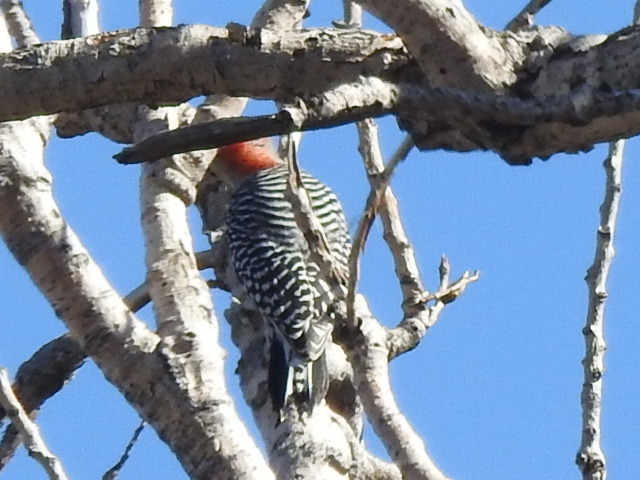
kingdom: Animalia
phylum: Chordata
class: Aves
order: Piciformes
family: Picidae
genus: Melanerpes
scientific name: Melanerpes carolinus
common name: Red-bellied woodpecker
